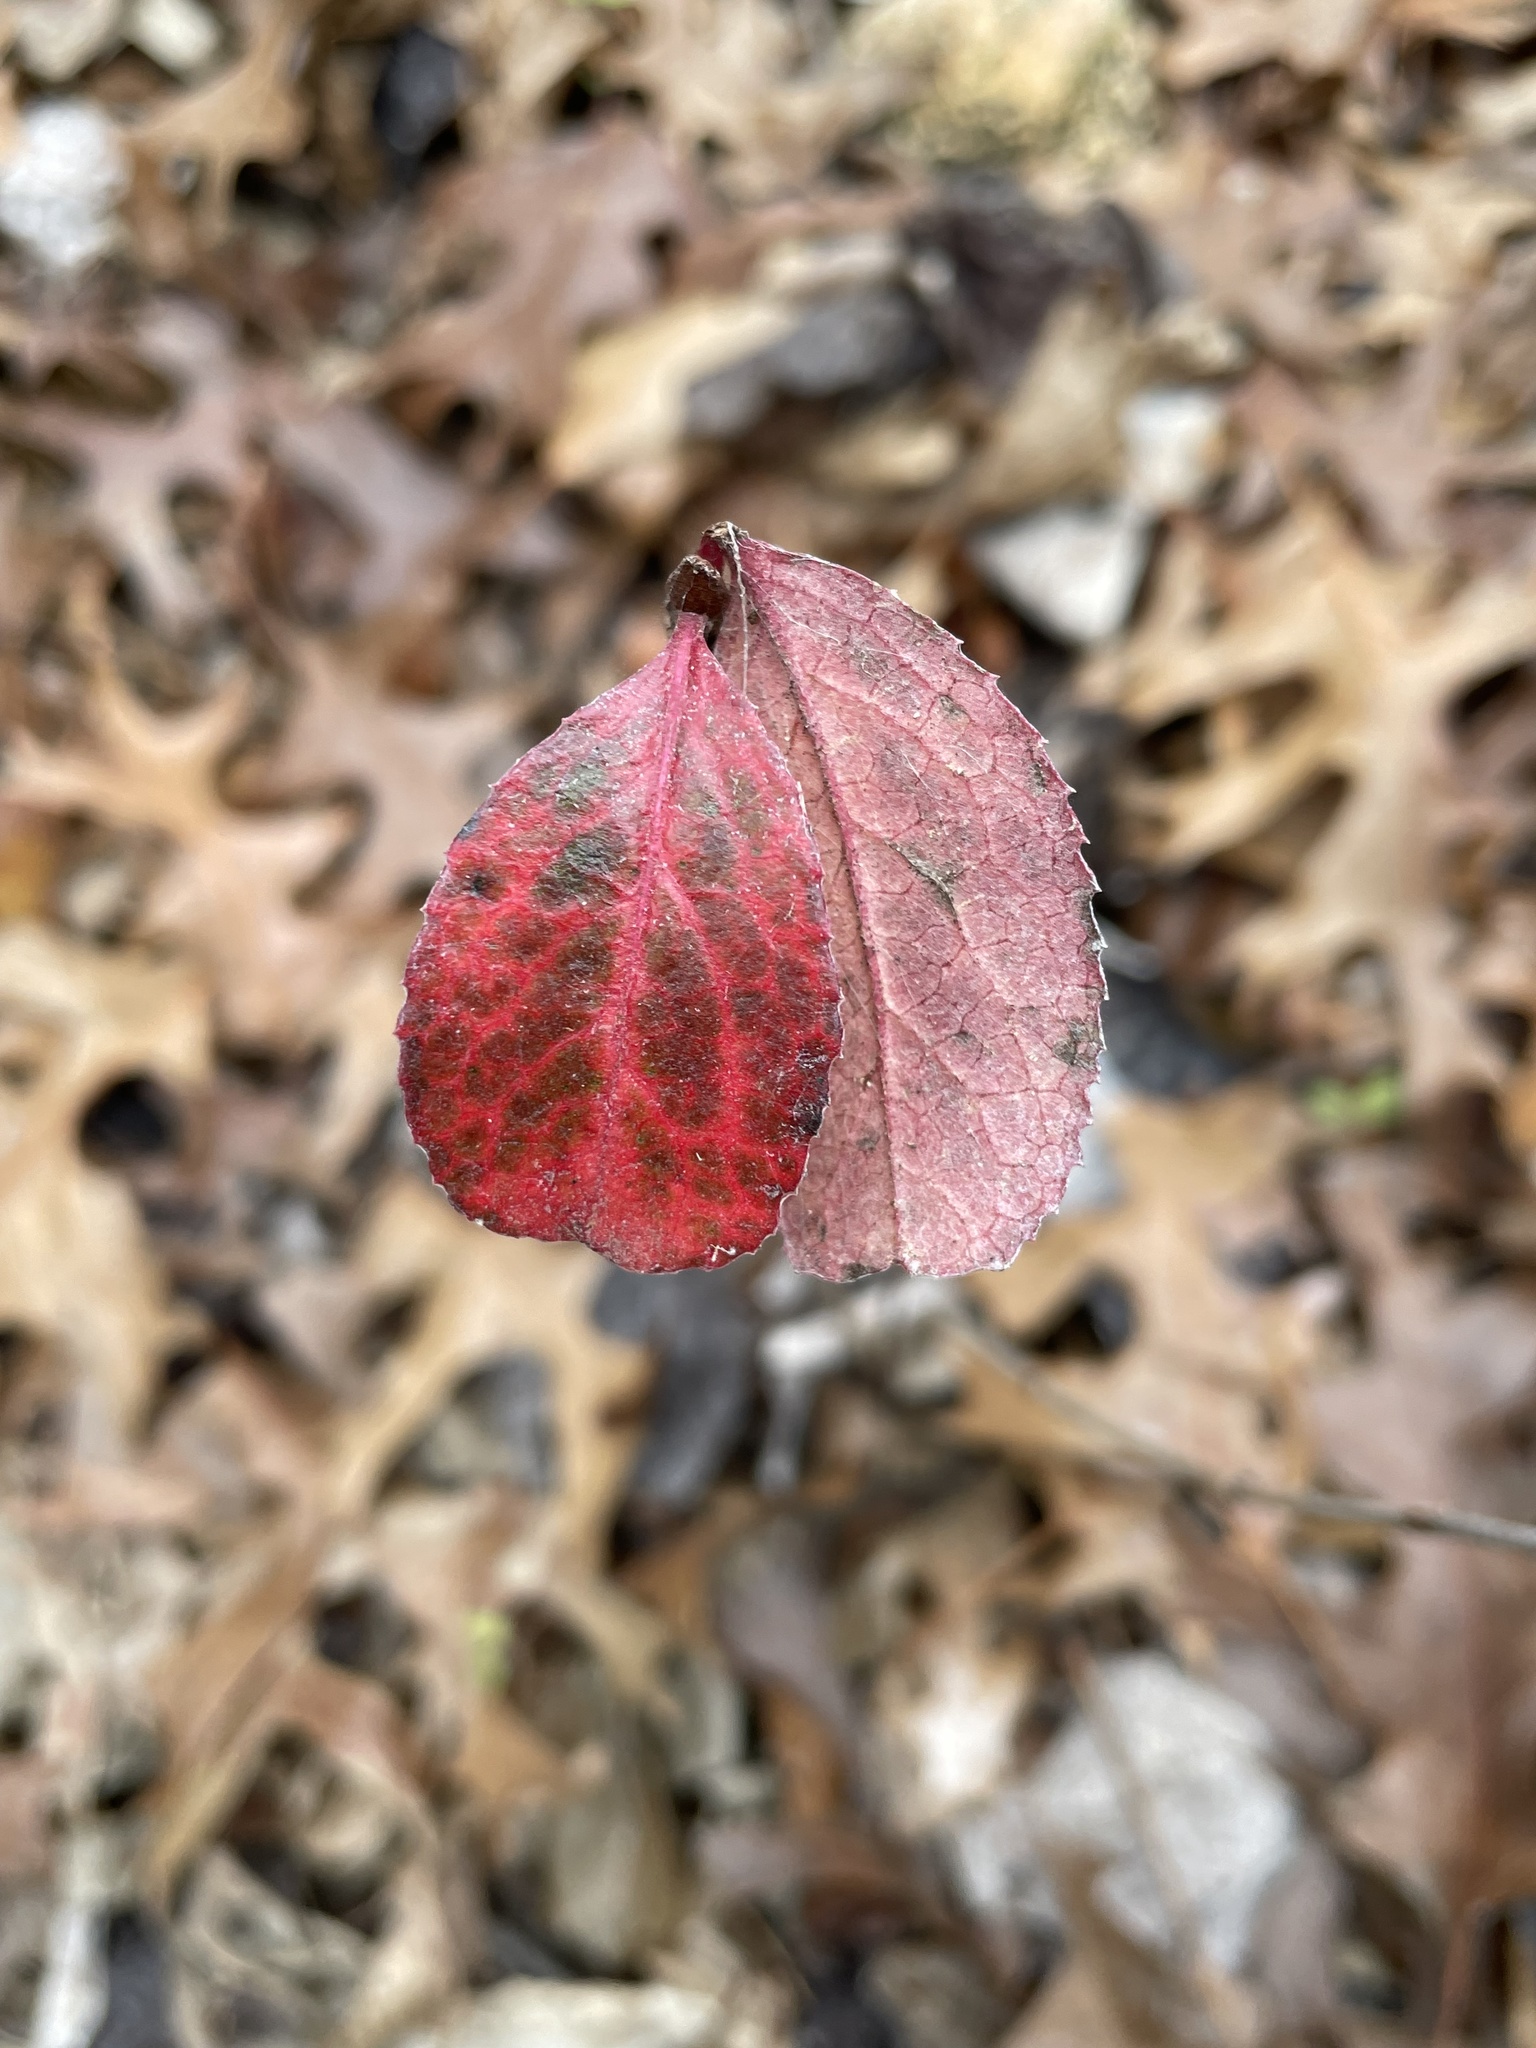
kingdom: Plantae
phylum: Tracheophyta
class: Magnoliopsida
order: Dipsacales
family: Viburnaceae
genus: Viburnum
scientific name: Viburnum rufidulum
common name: Blue haw
